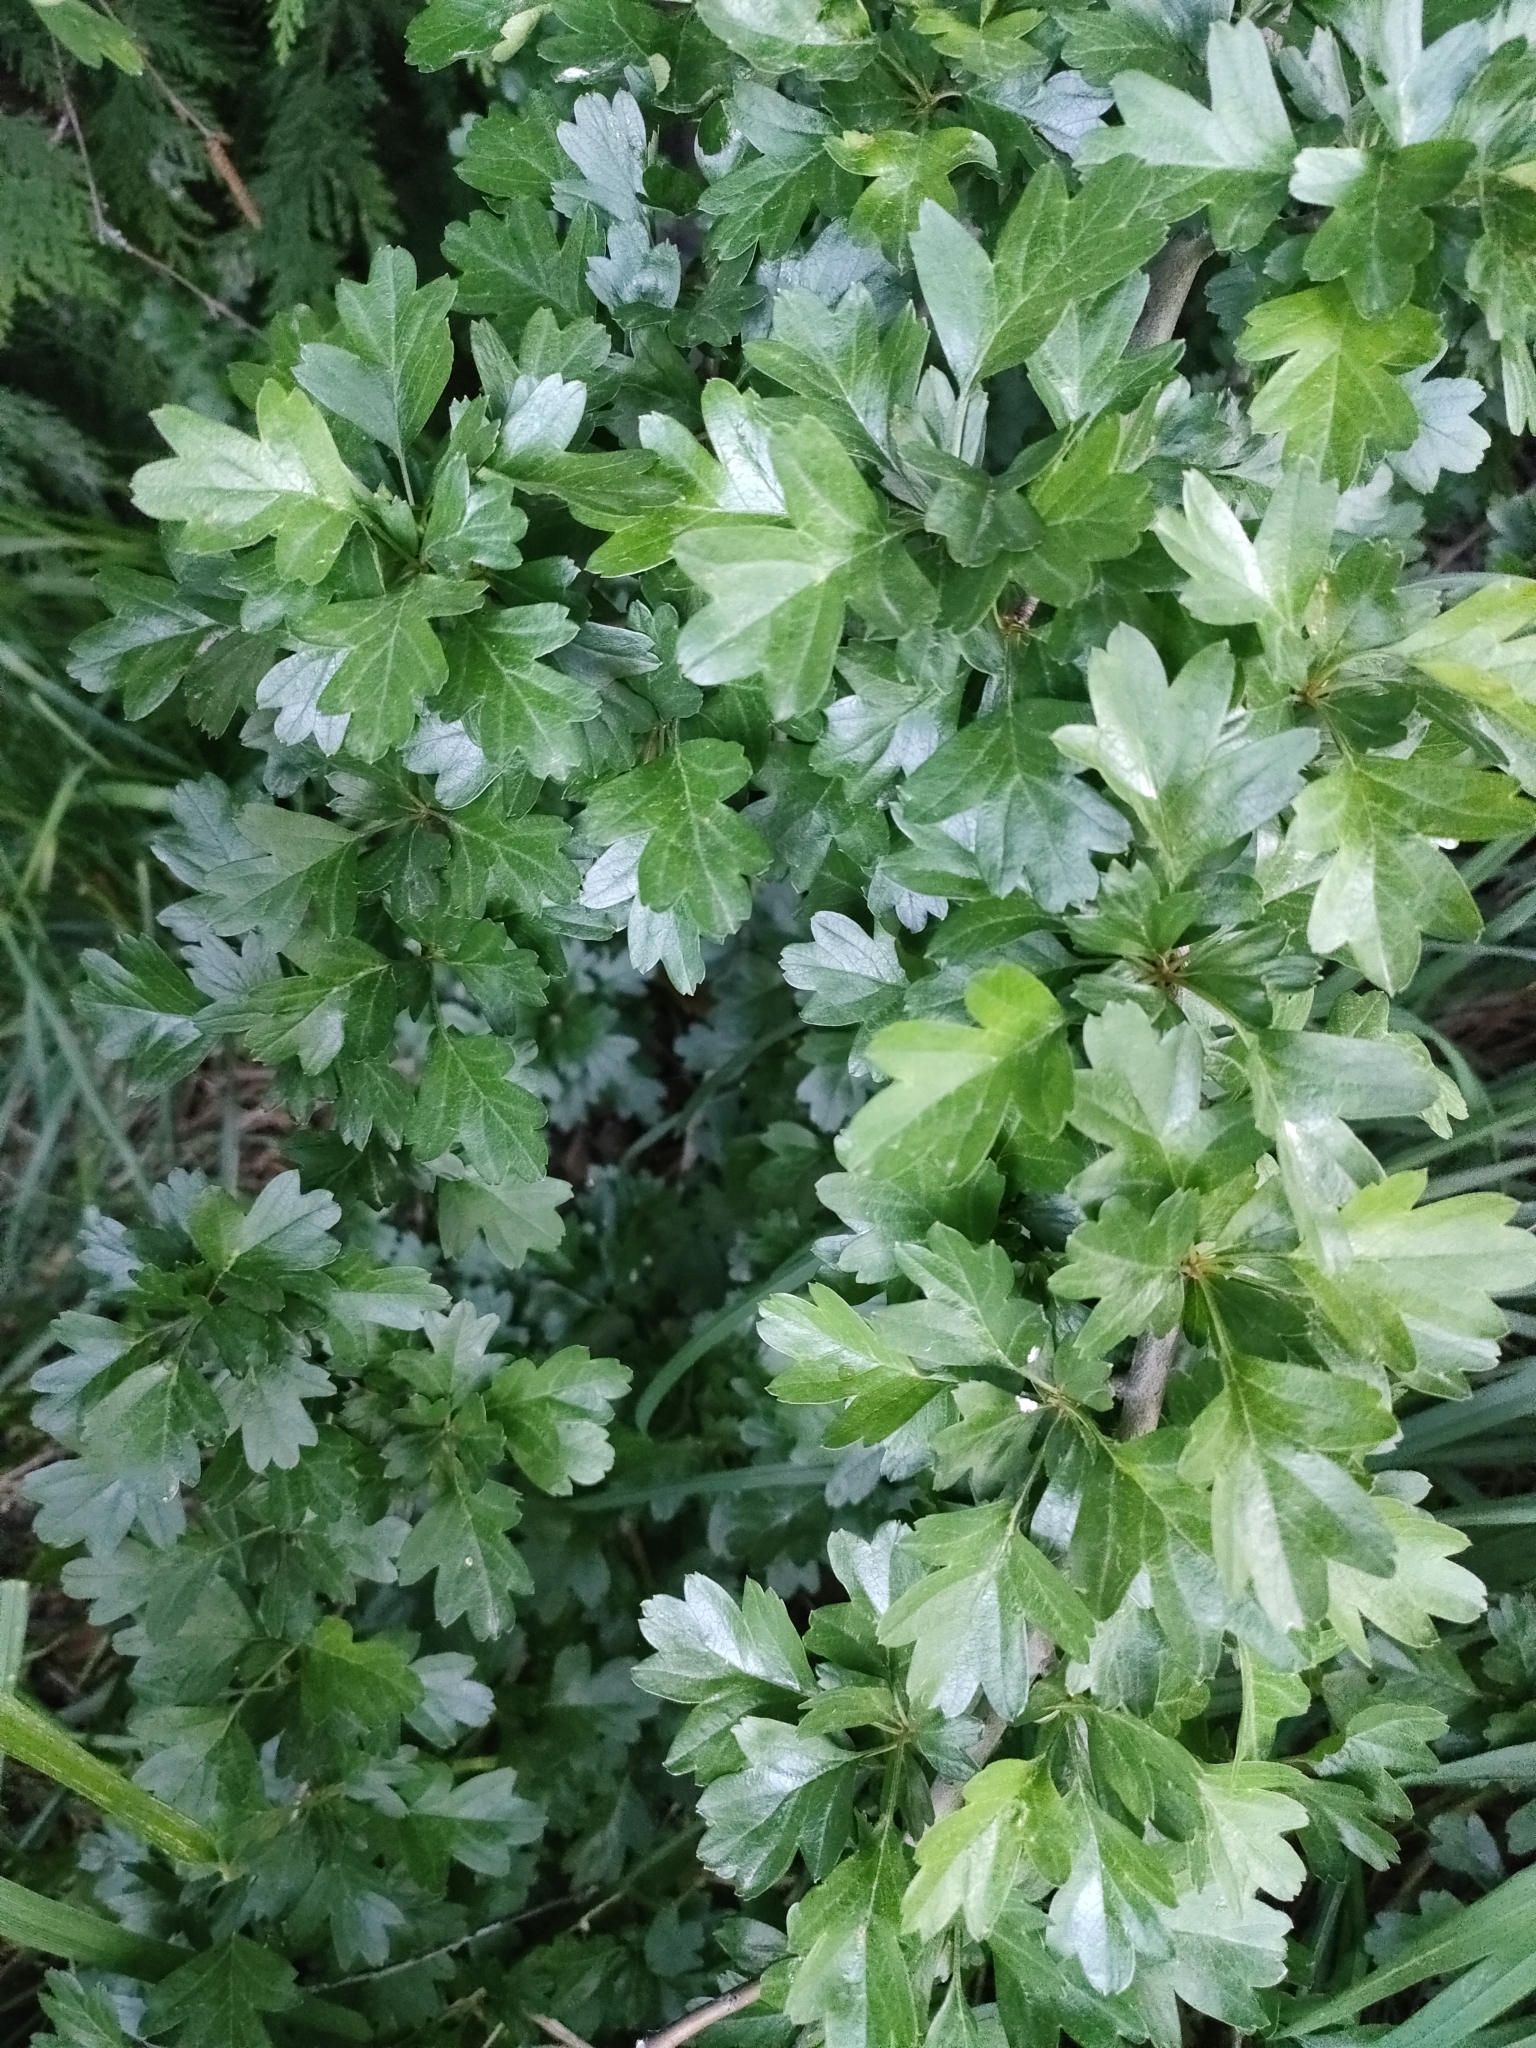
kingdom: Plantae
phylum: Tracheophyta
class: Magnoliopsida
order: Rosales
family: Rosaceae
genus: Crataegus
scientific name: Crataegus monogyna
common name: Hawthorn
